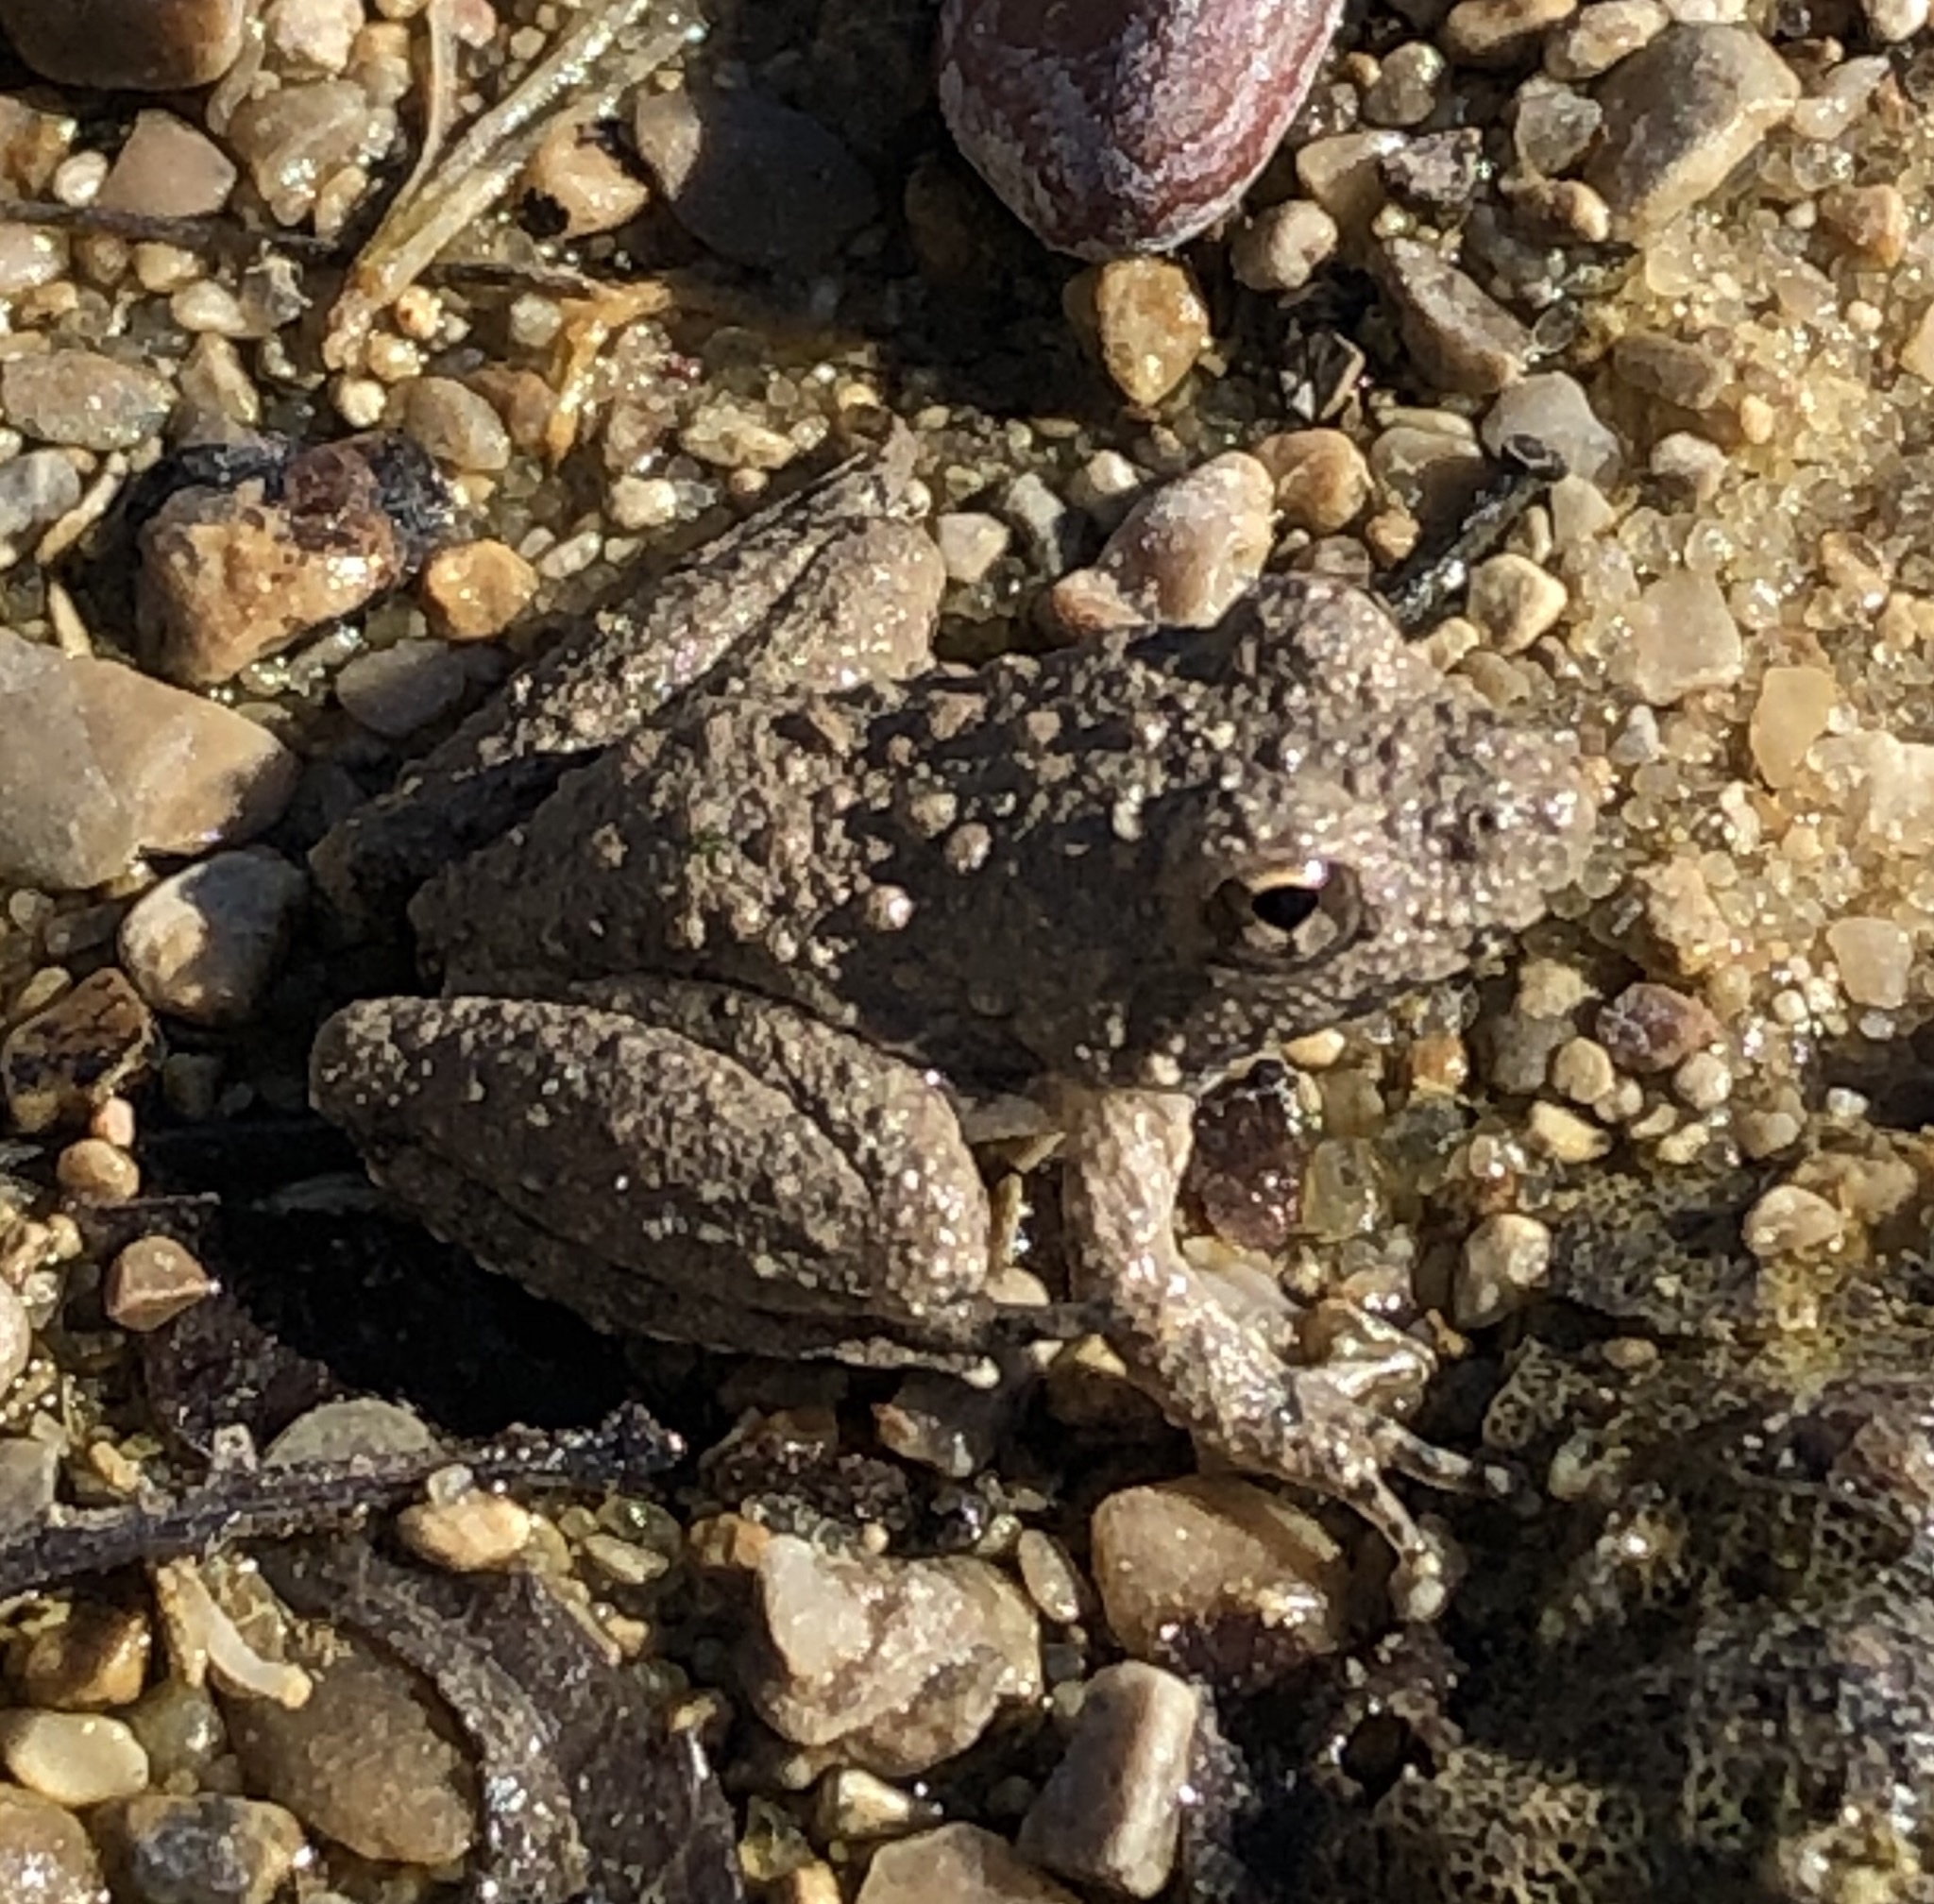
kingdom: Animalia
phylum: Chordata
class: Amphibia
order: Anura
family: Hylidae
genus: Acris
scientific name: Acris blanchardi
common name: Blanchard's cricket frog
